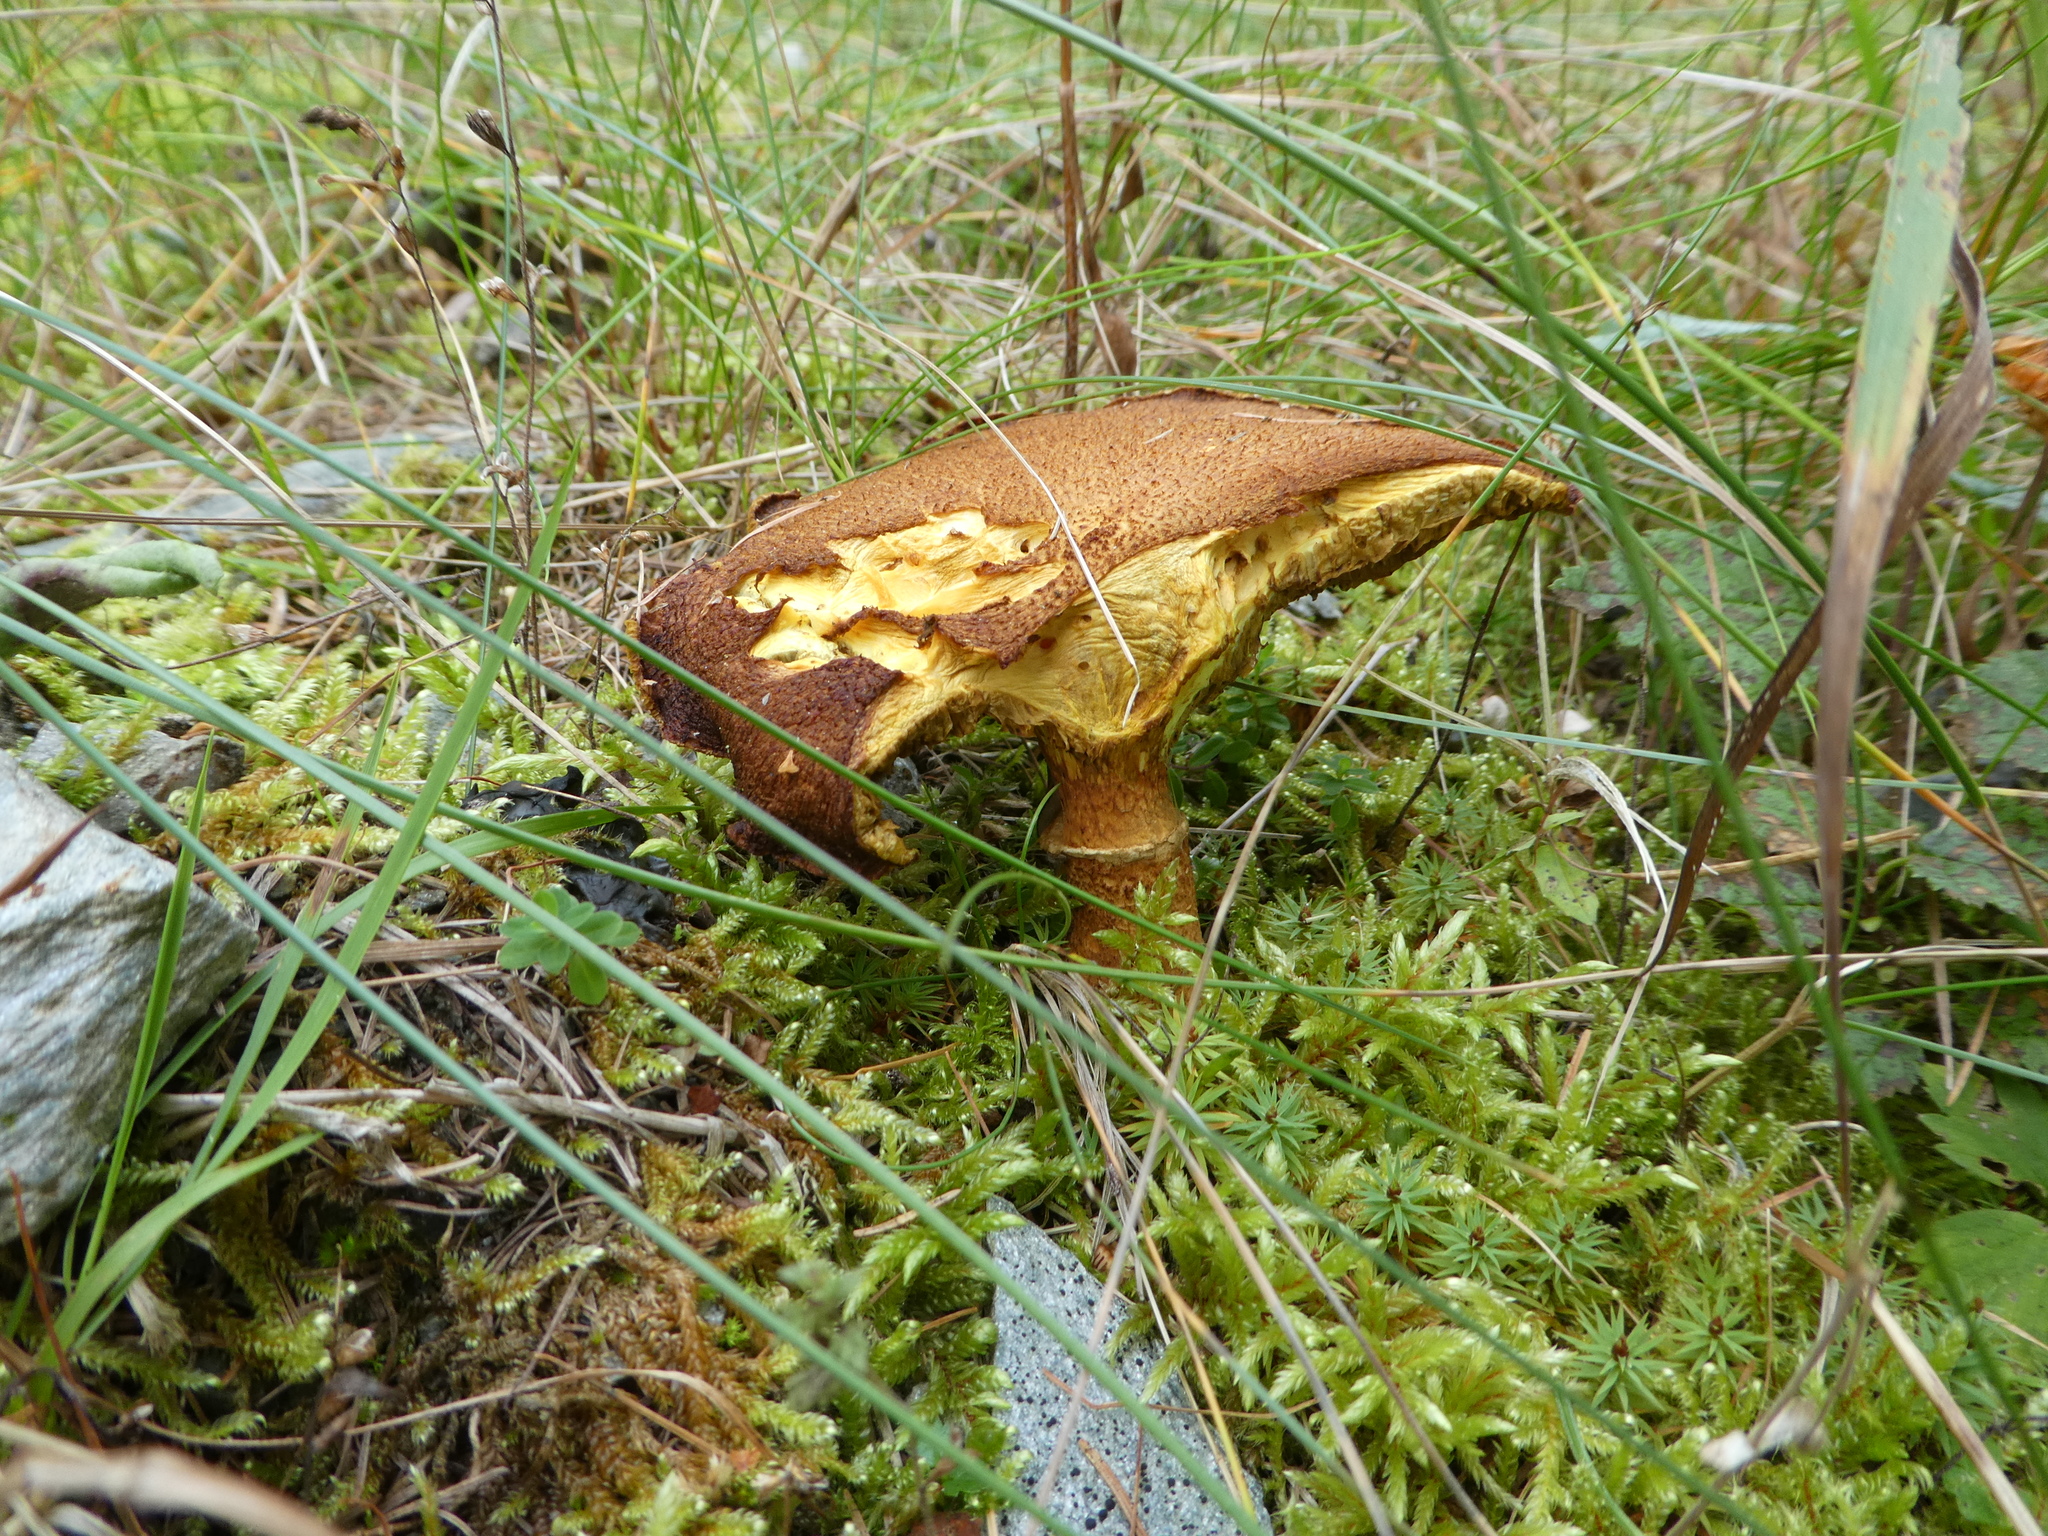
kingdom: Fungi
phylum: Basidiomycota
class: Agaricomycetes
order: Boletales
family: Suillaceae
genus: Suillus
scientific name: Suillus cavipes
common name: Hollow bolete
